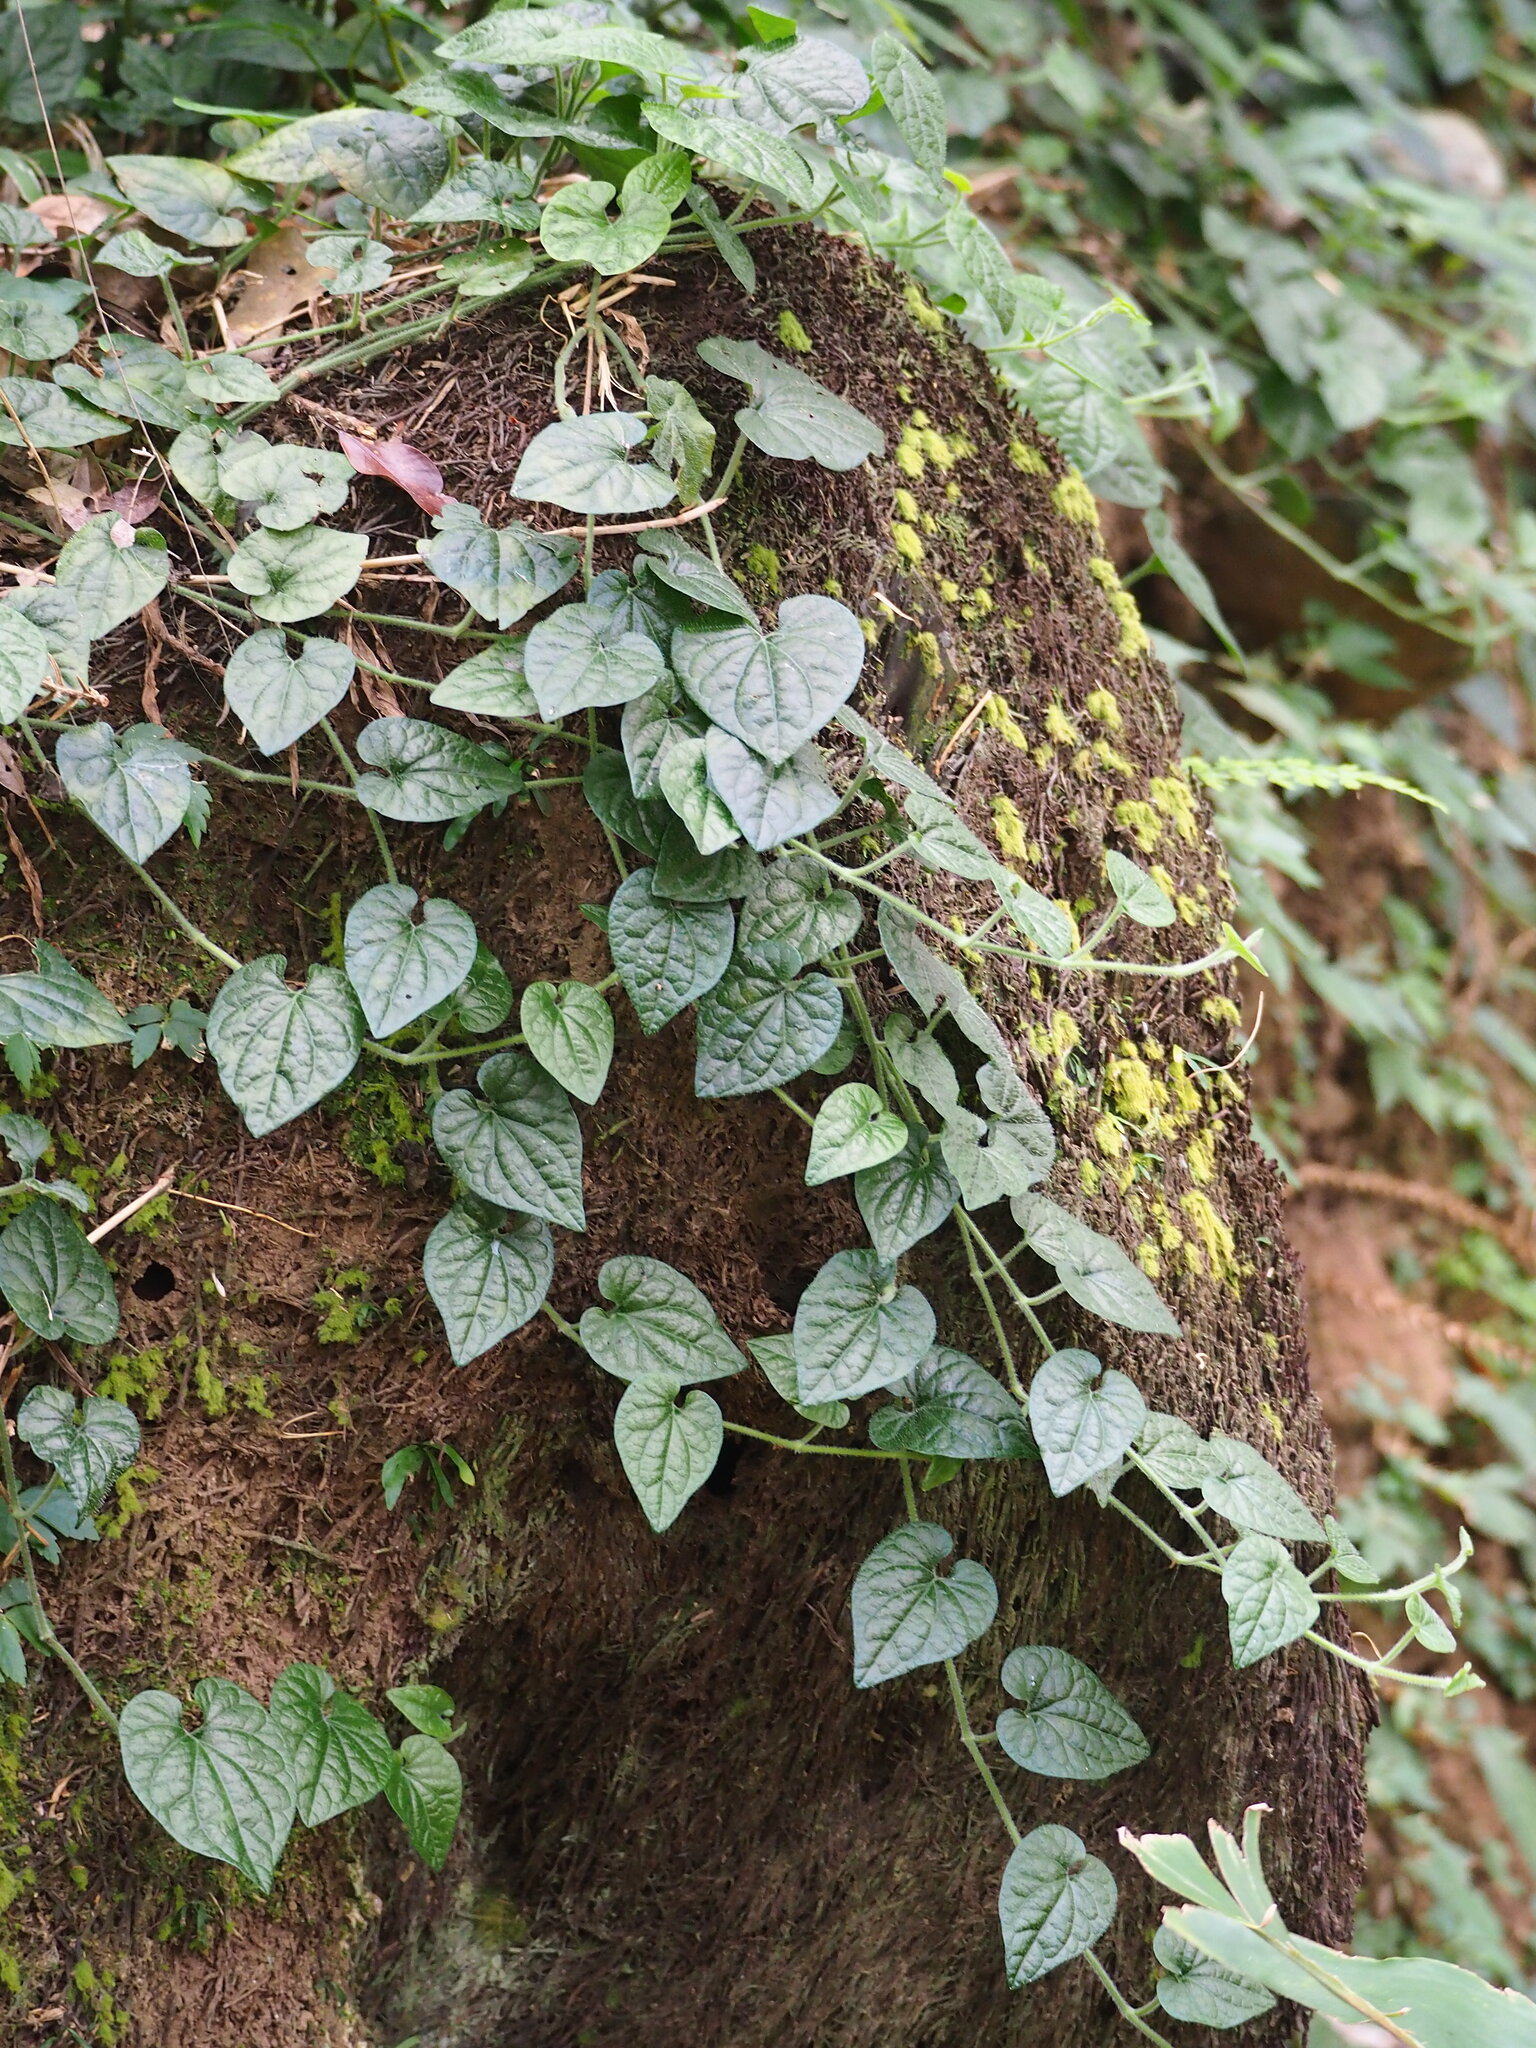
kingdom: Plantae
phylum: Tracheophyta
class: Magnoliopsida
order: Piperales
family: Piperaceae
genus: Piper
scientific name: Piper sintenense
